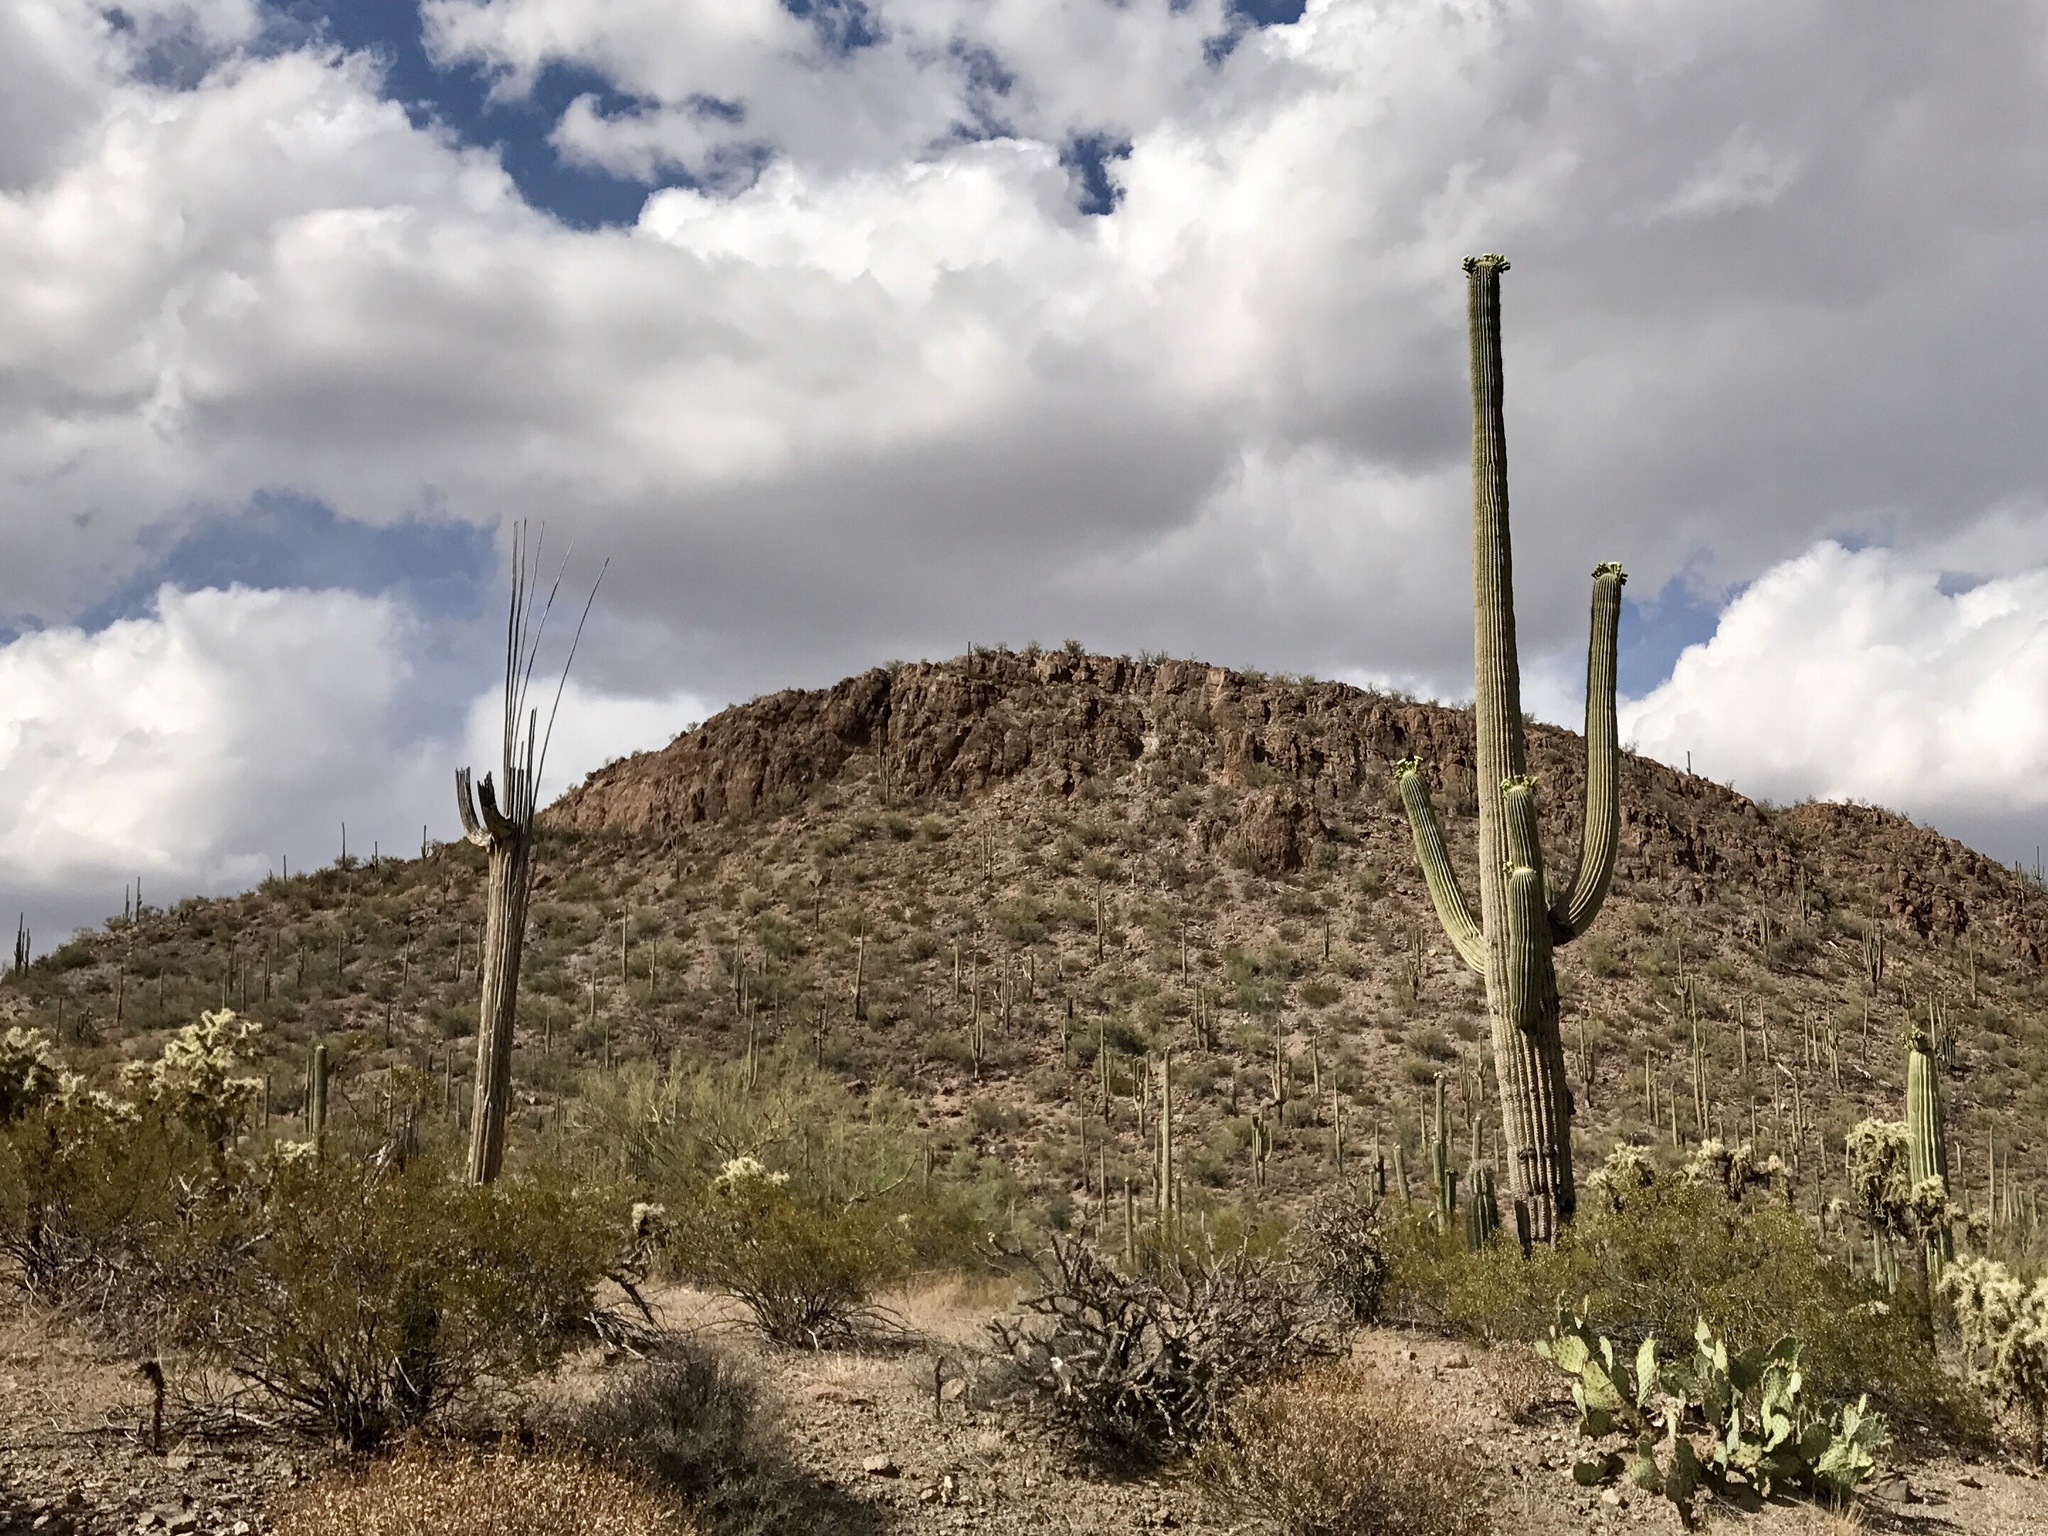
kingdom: Plantae
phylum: Tracheophyta
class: Magnoliopsida
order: Caryophyllales
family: Cactaceae
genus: Carnegiea
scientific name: Carnegiea gigantea
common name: Saguaro
